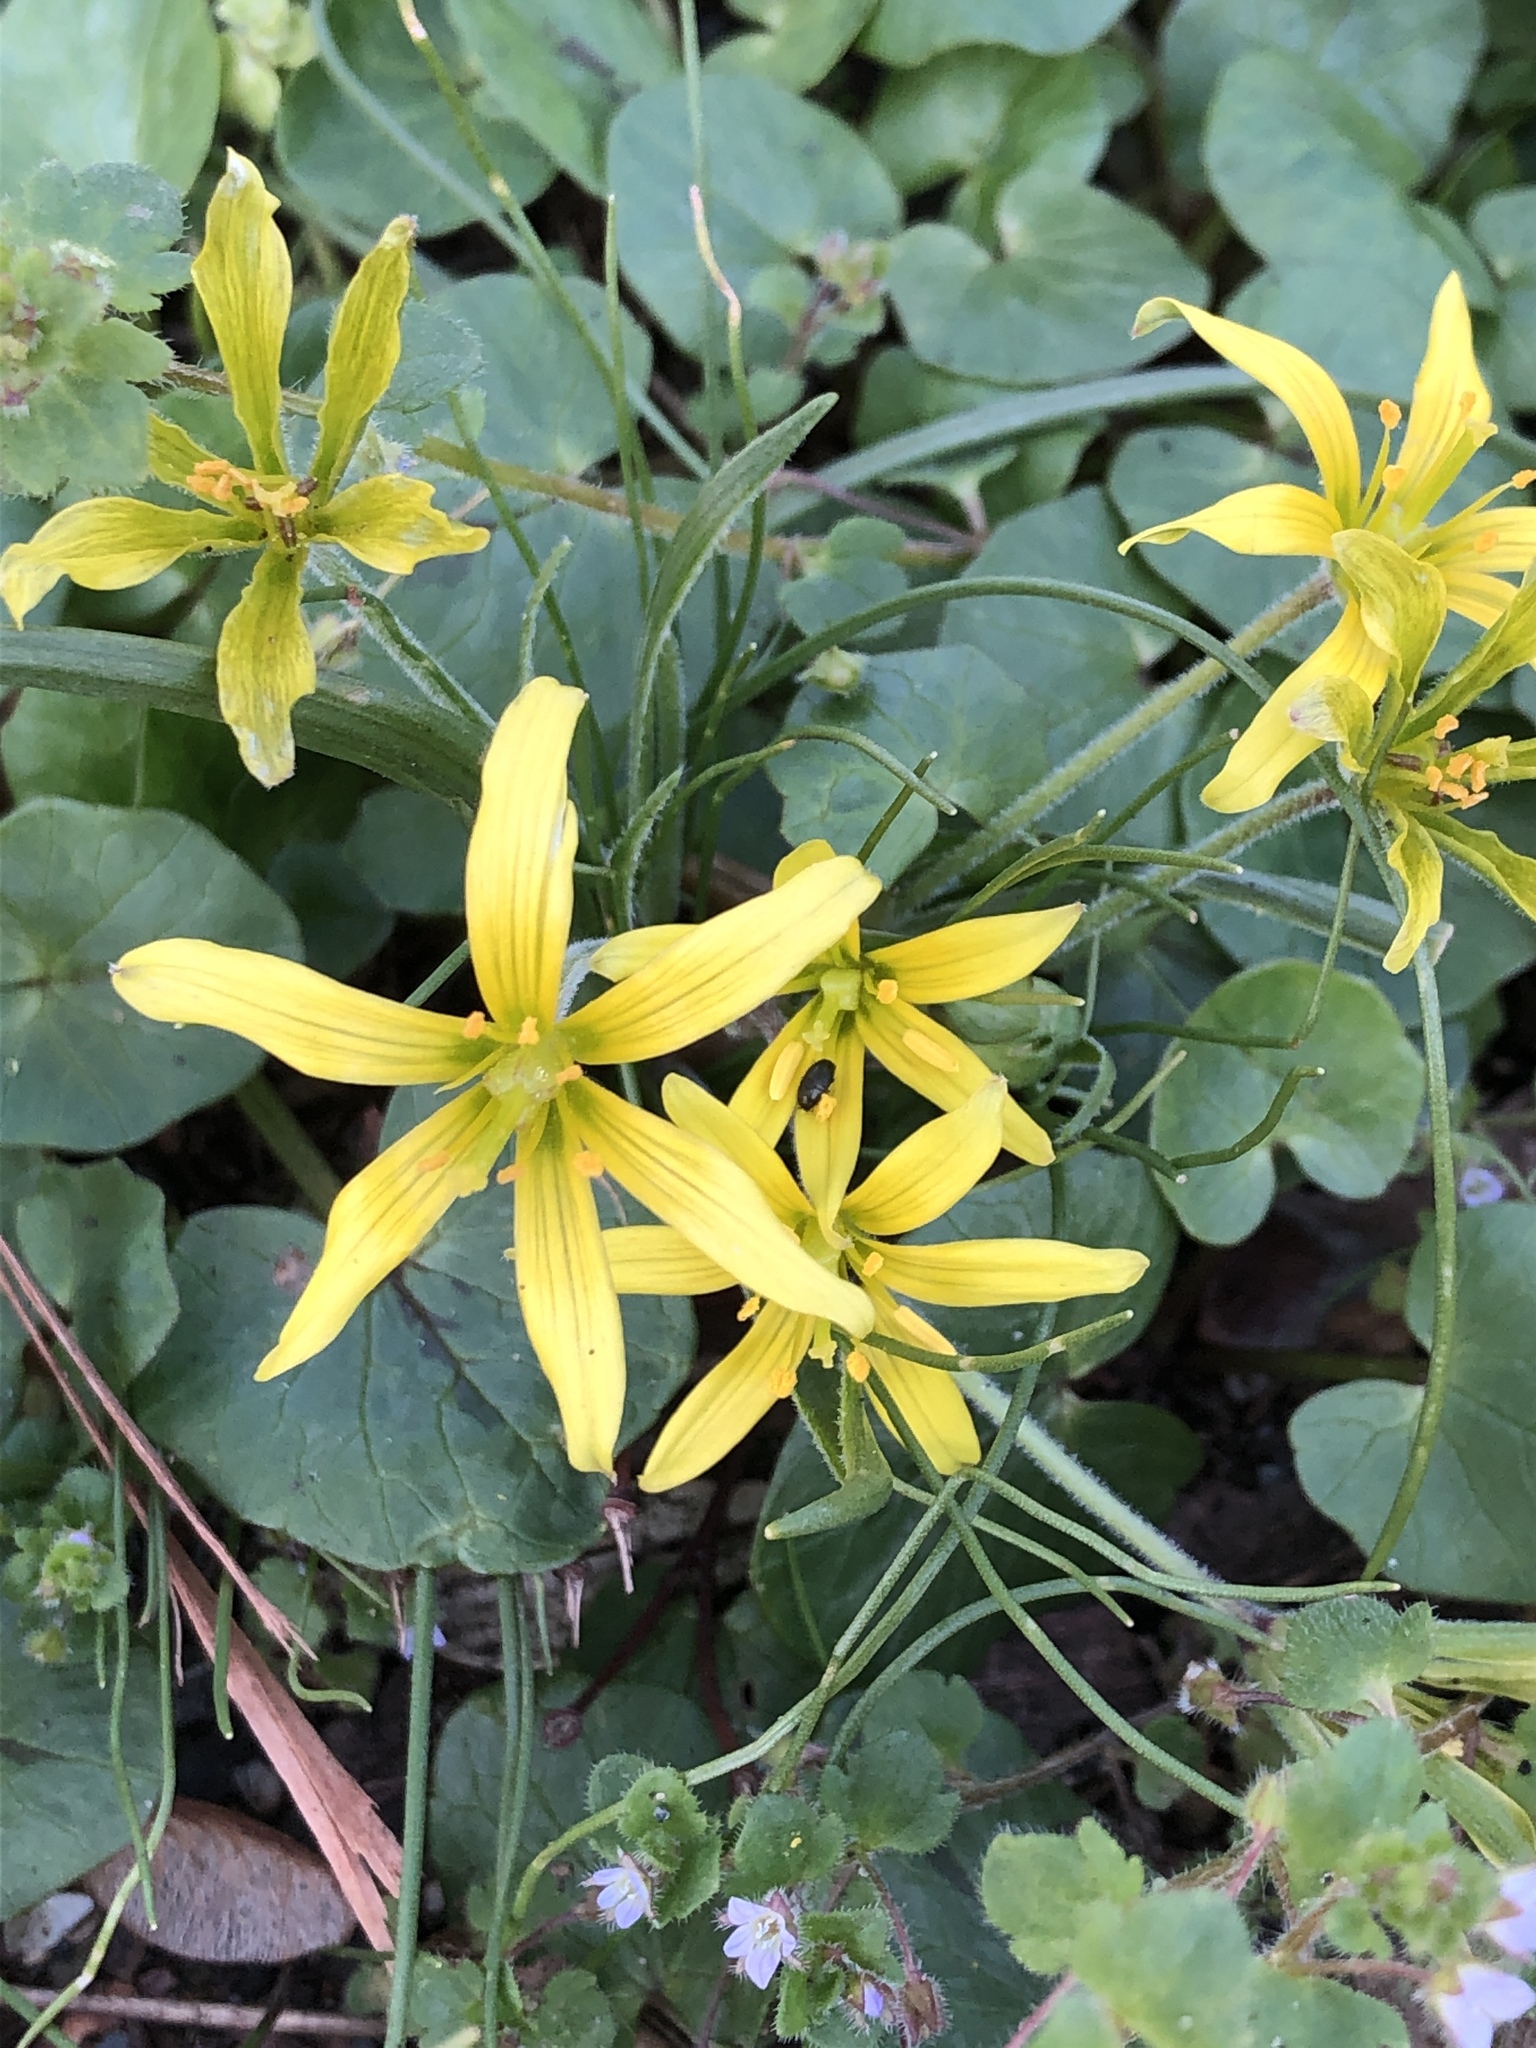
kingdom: Plantae
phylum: Tracheophyta
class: Liliopsida
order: Liliales
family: Liliaceae
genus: Gagea
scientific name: Gagea villosa
